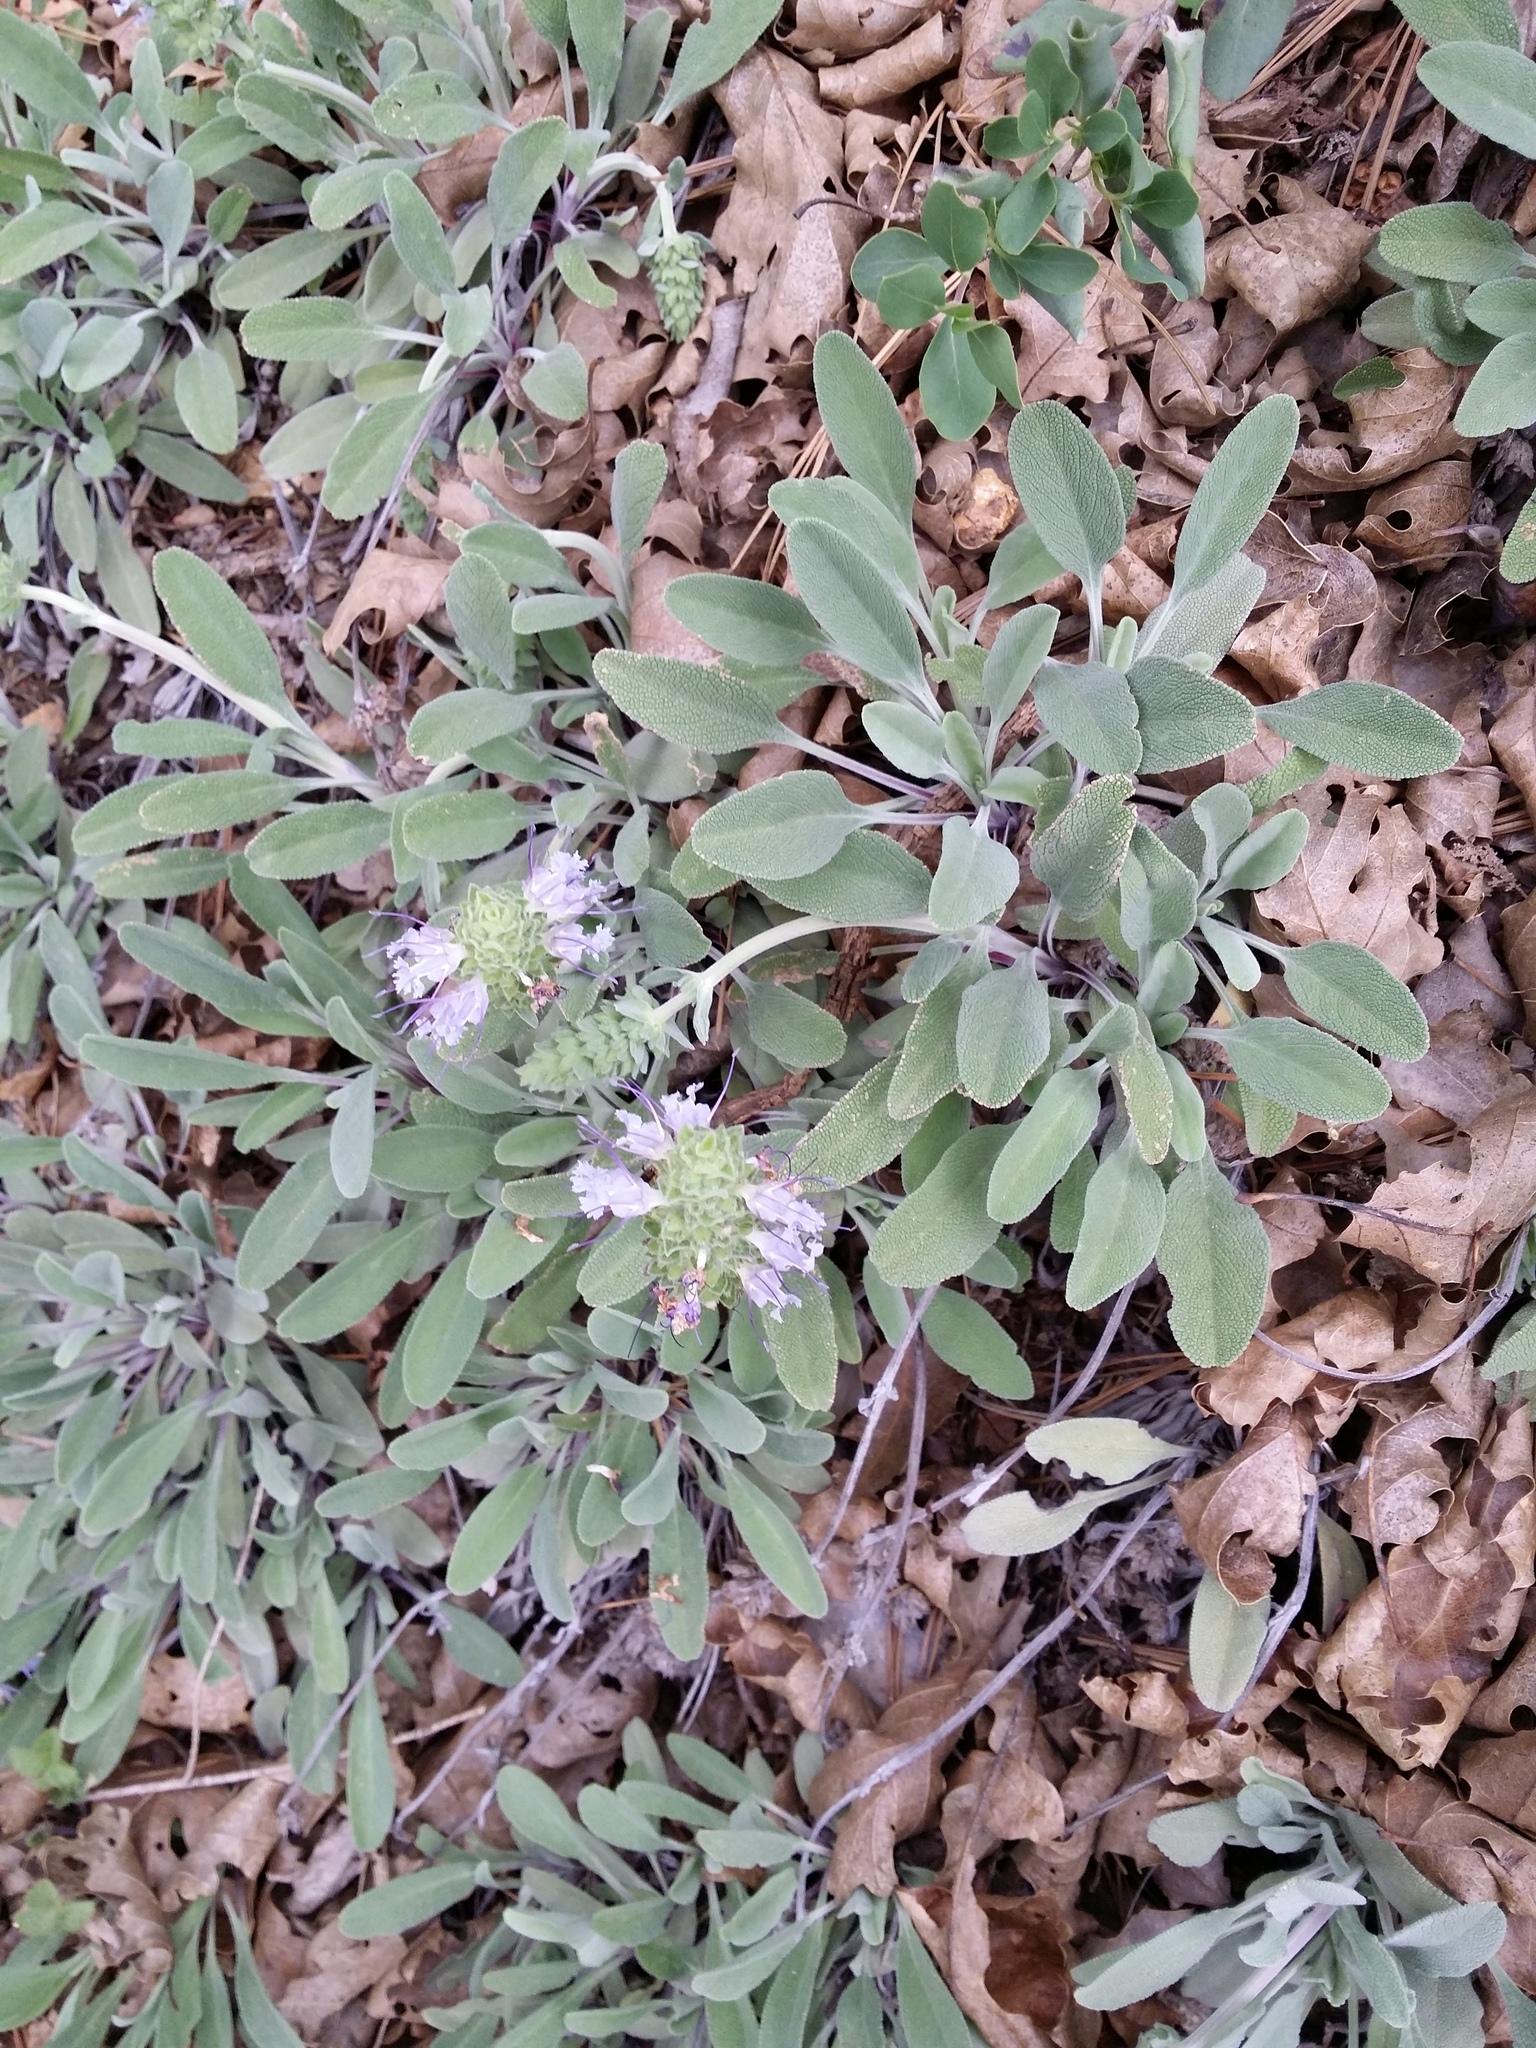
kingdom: Plantae
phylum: Tracheophyta
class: Magnoliopsida
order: Lamiales
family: Lamiaceae
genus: Salvia
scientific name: Salvia sonomensis
